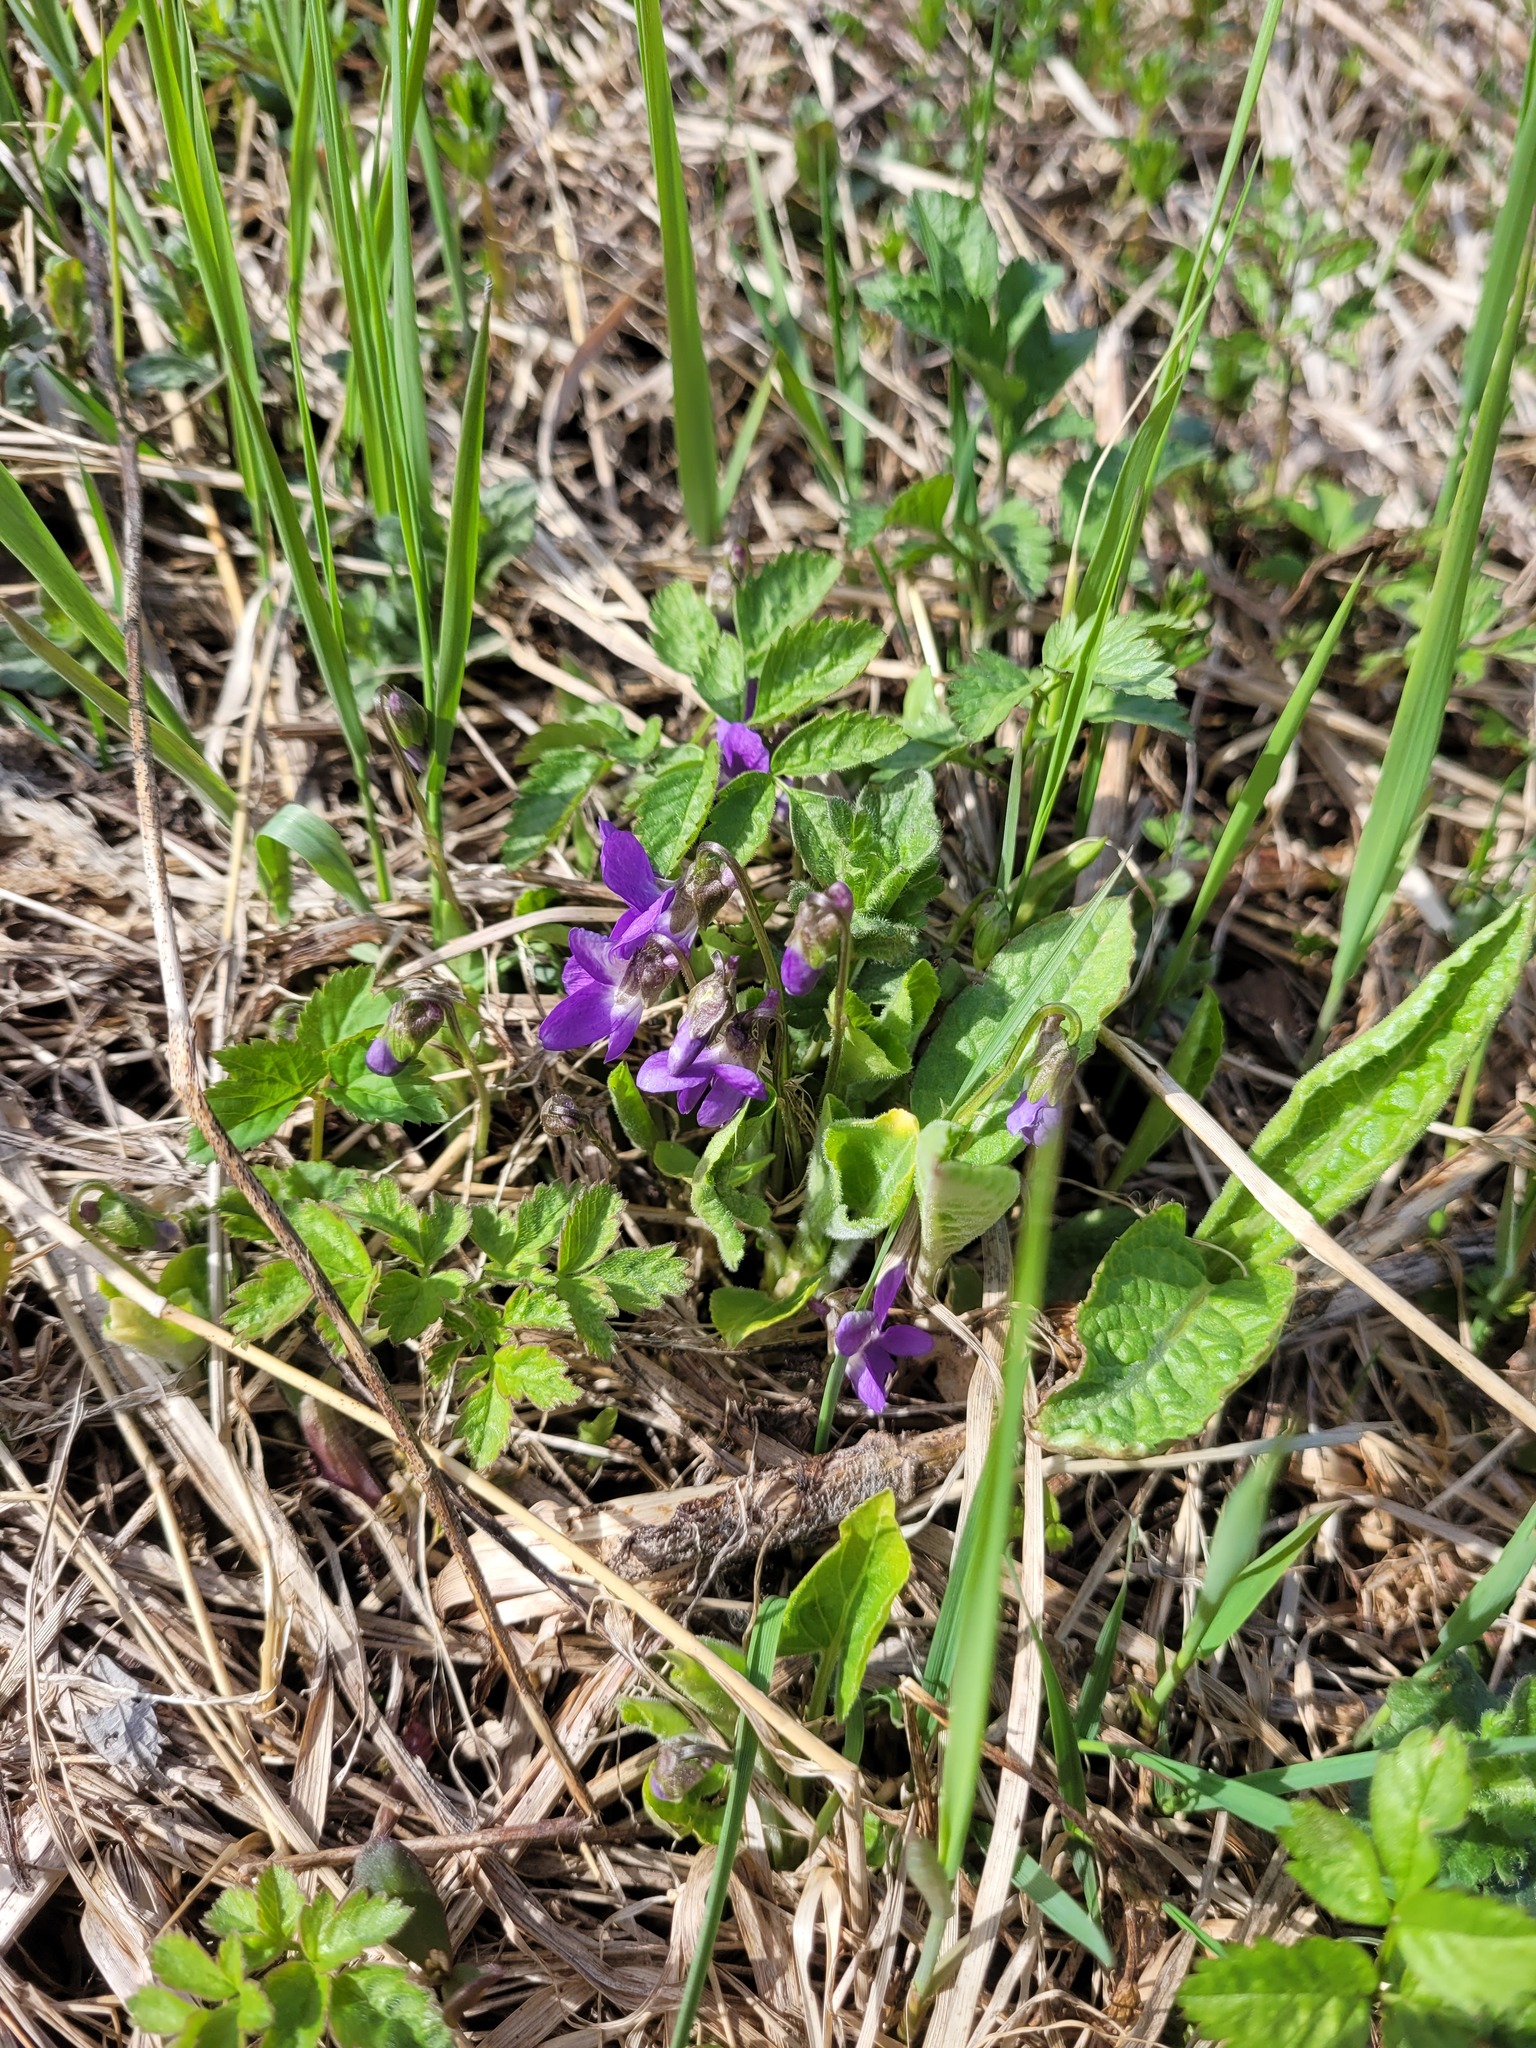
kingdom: Plantae
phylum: Tracheophyta
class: Magnoliopsida
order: Malpighiales
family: Violaceae
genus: Viola
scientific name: Viola hirta
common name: Hairy violet
